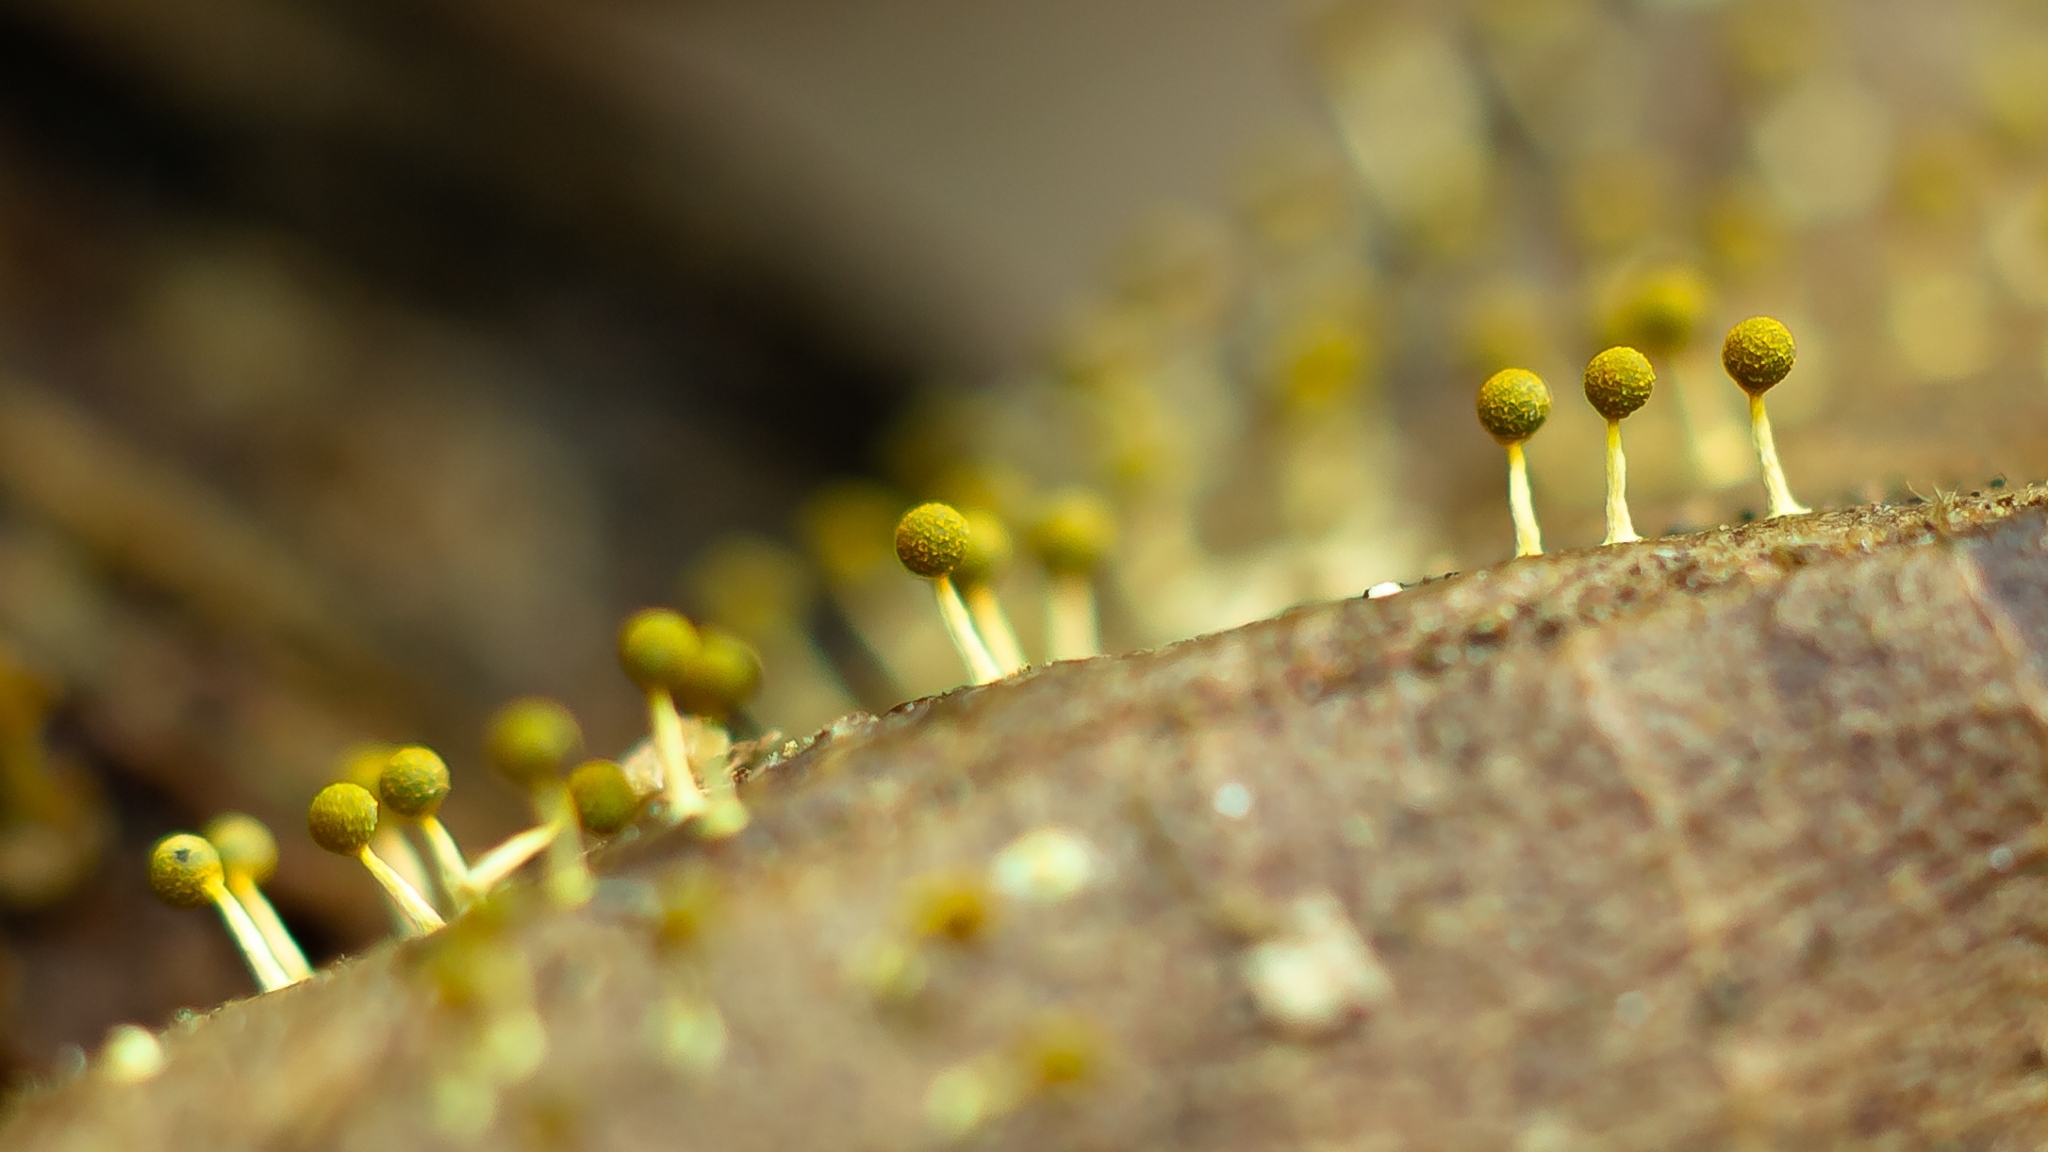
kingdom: Protozoa
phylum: Mycetozoa
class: Myxomycetes
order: Physarales
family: Physaraceae
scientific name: Physaraceae
